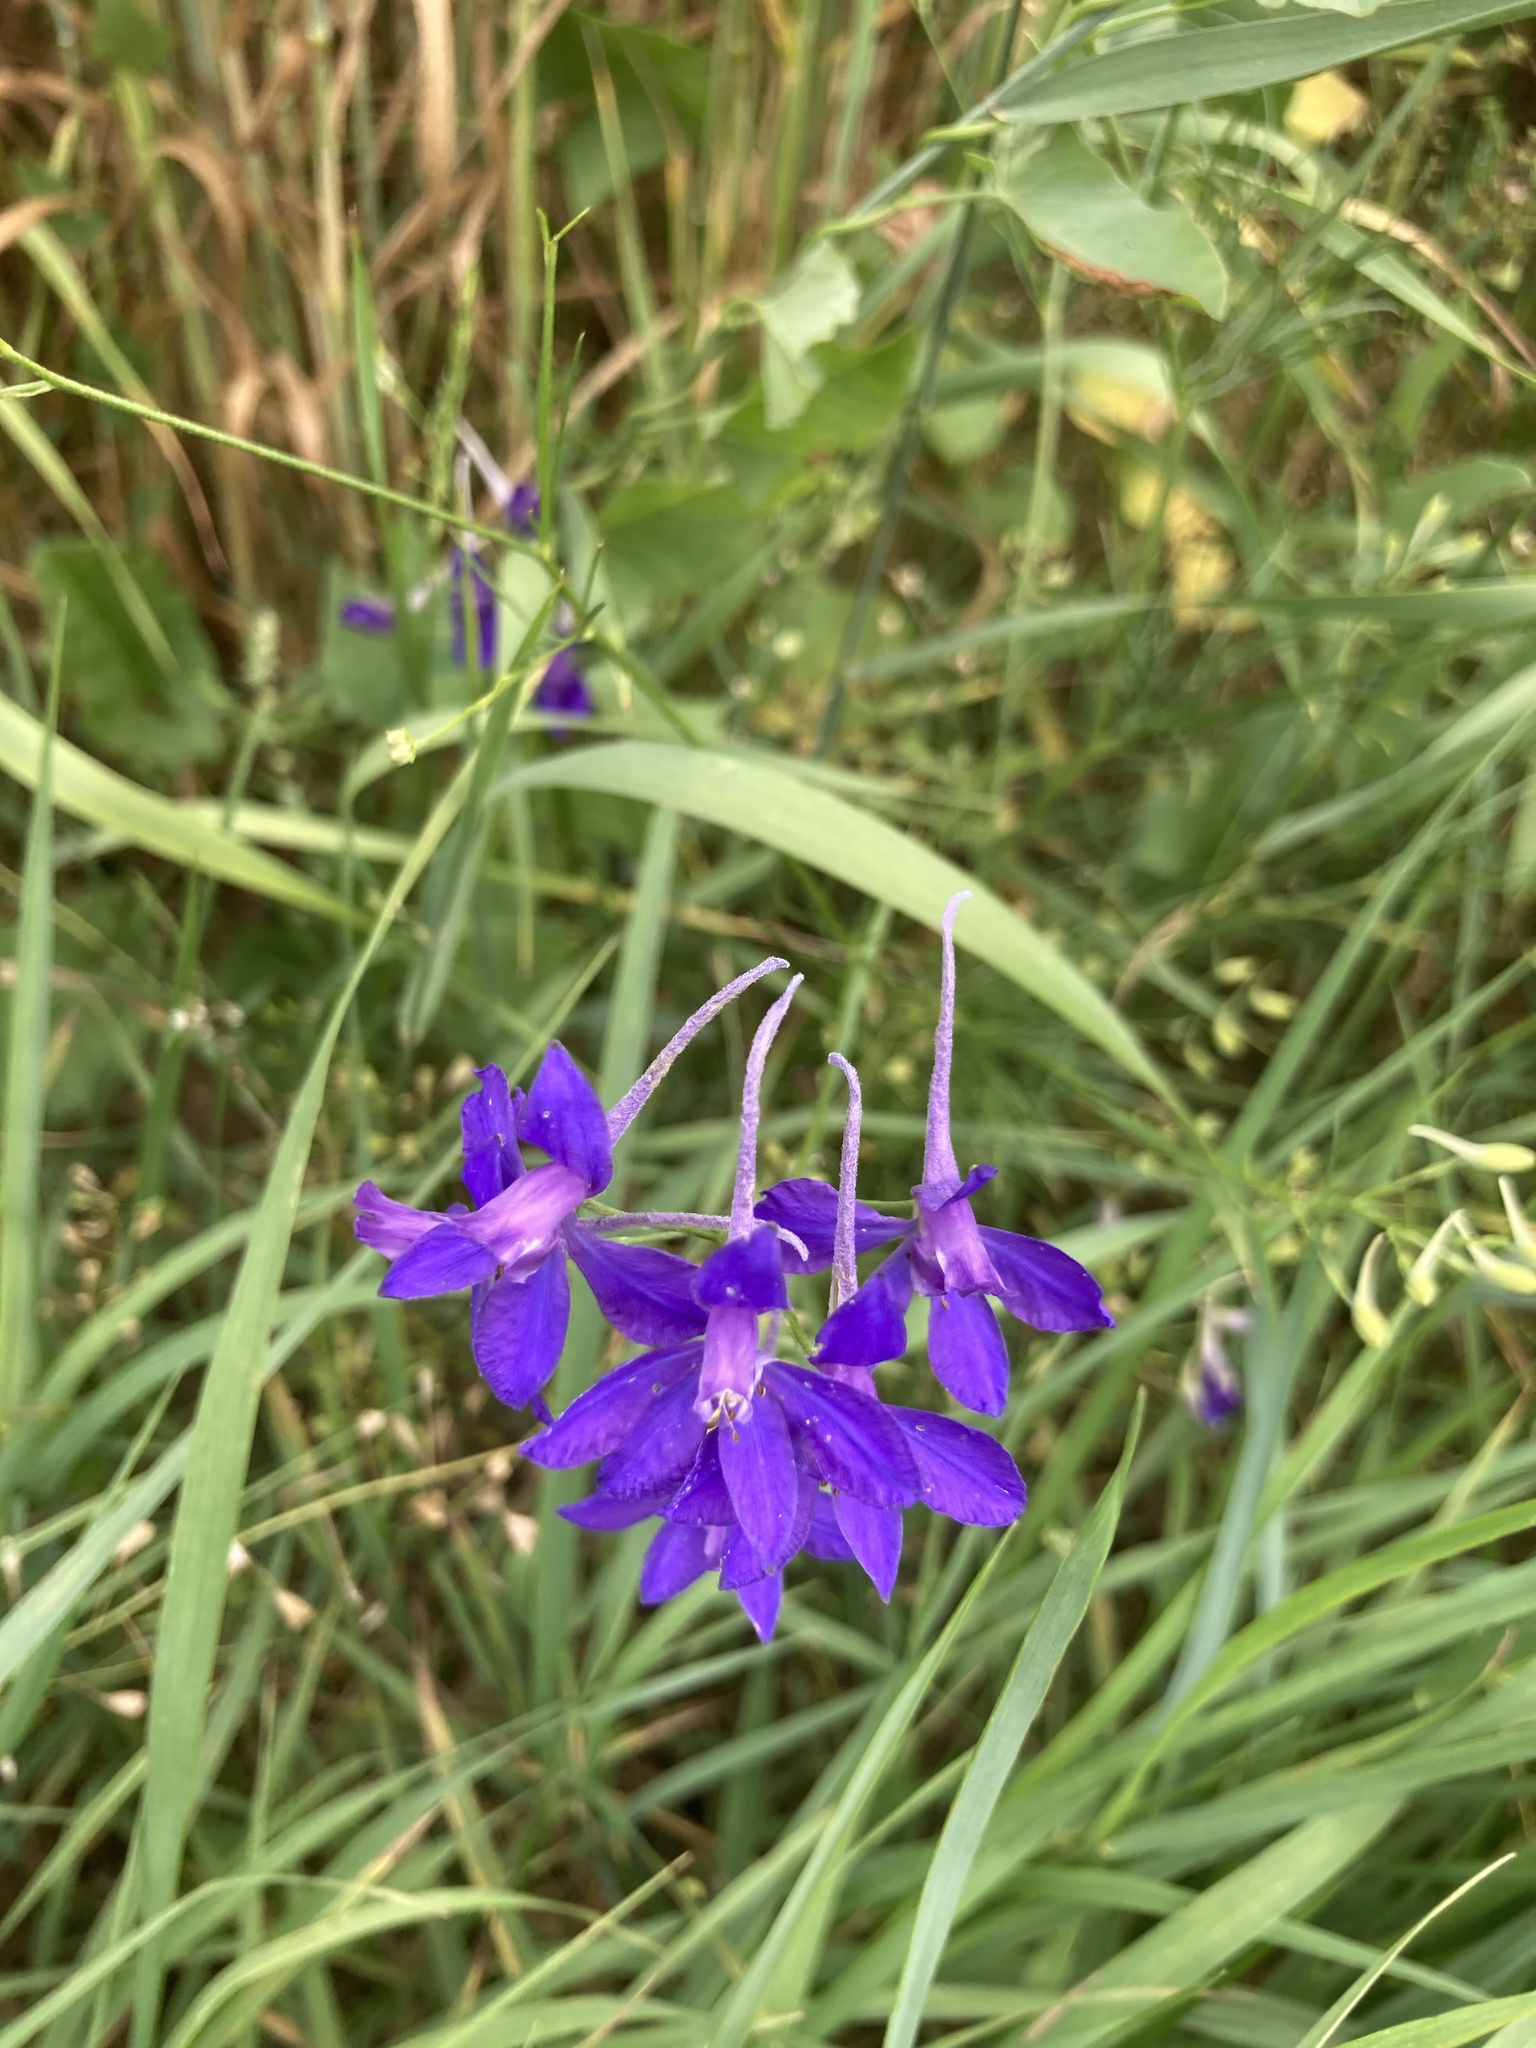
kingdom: Plantae
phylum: Tracheophyta
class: Magnoliopsida
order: Ranunculales
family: Ranunculaceae
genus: Delphinium
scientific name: Delphinium consolida
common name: Branching larkspur
